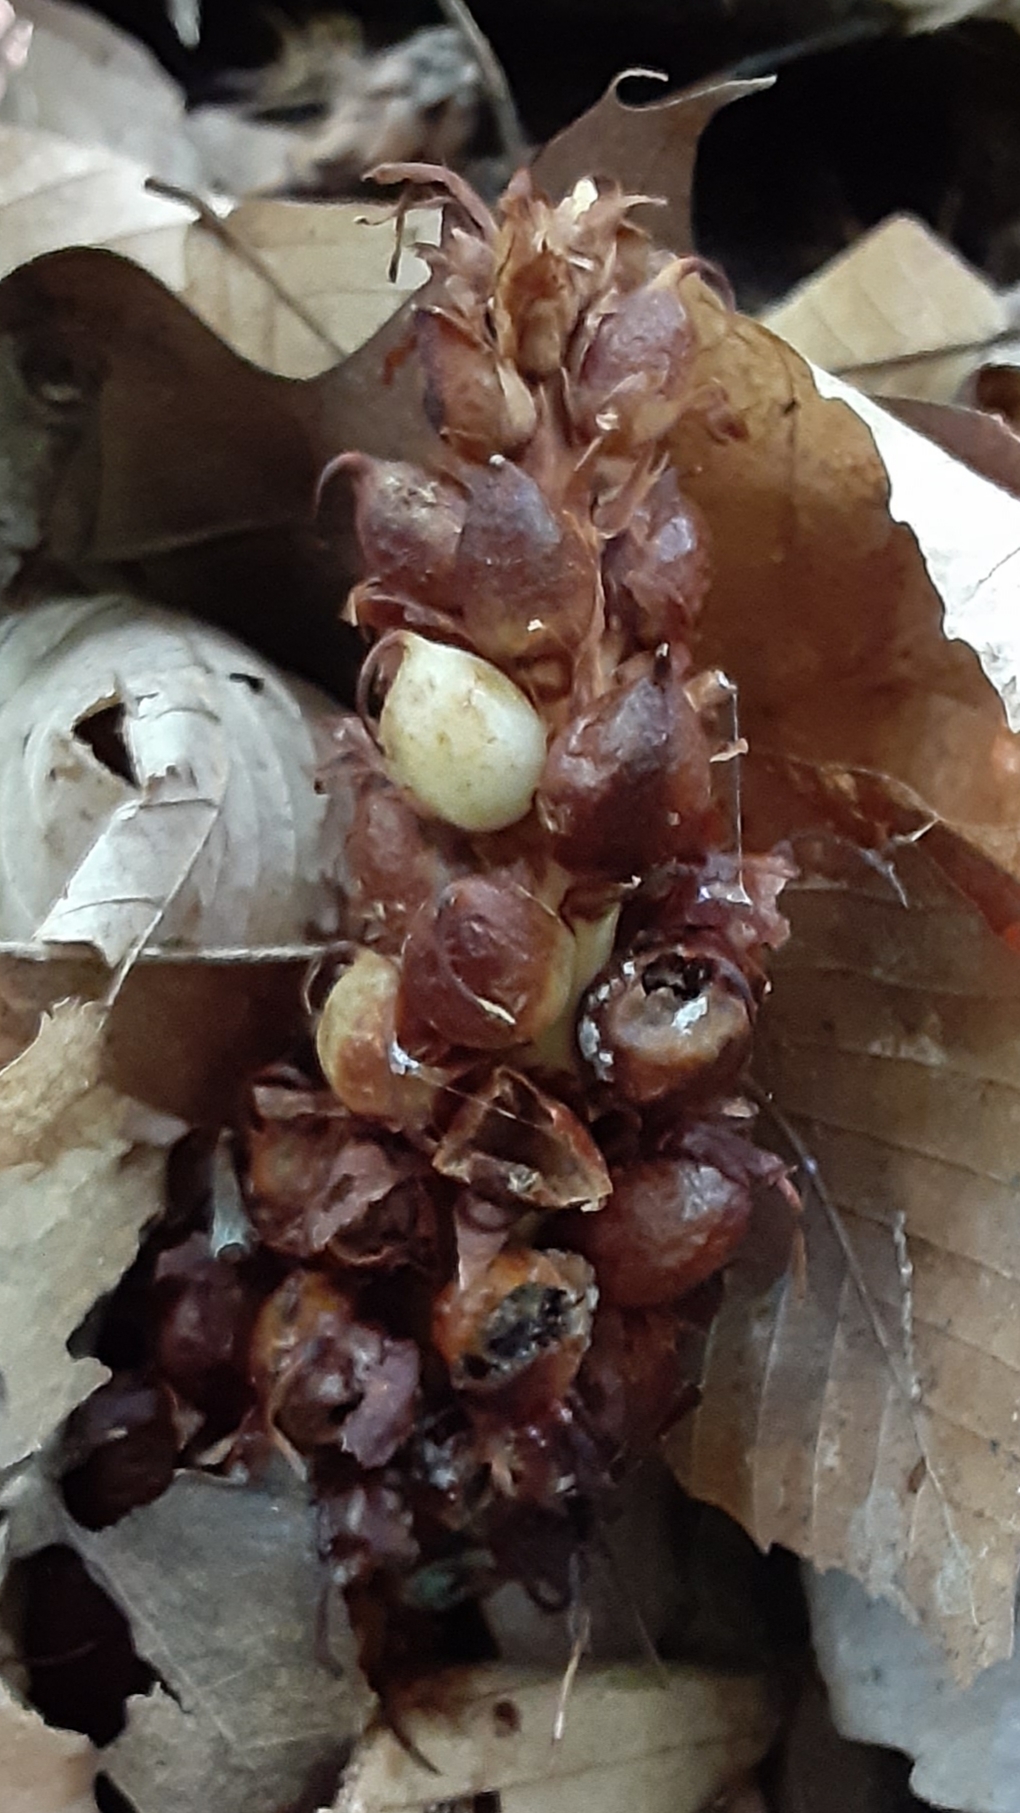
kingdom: Plantae
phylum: Tracheophyta
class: Magnoliopsida
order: Lamiales
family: Orobanchaceae
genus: Conopholis
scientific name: Conopholis americana
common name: American cancer-root
